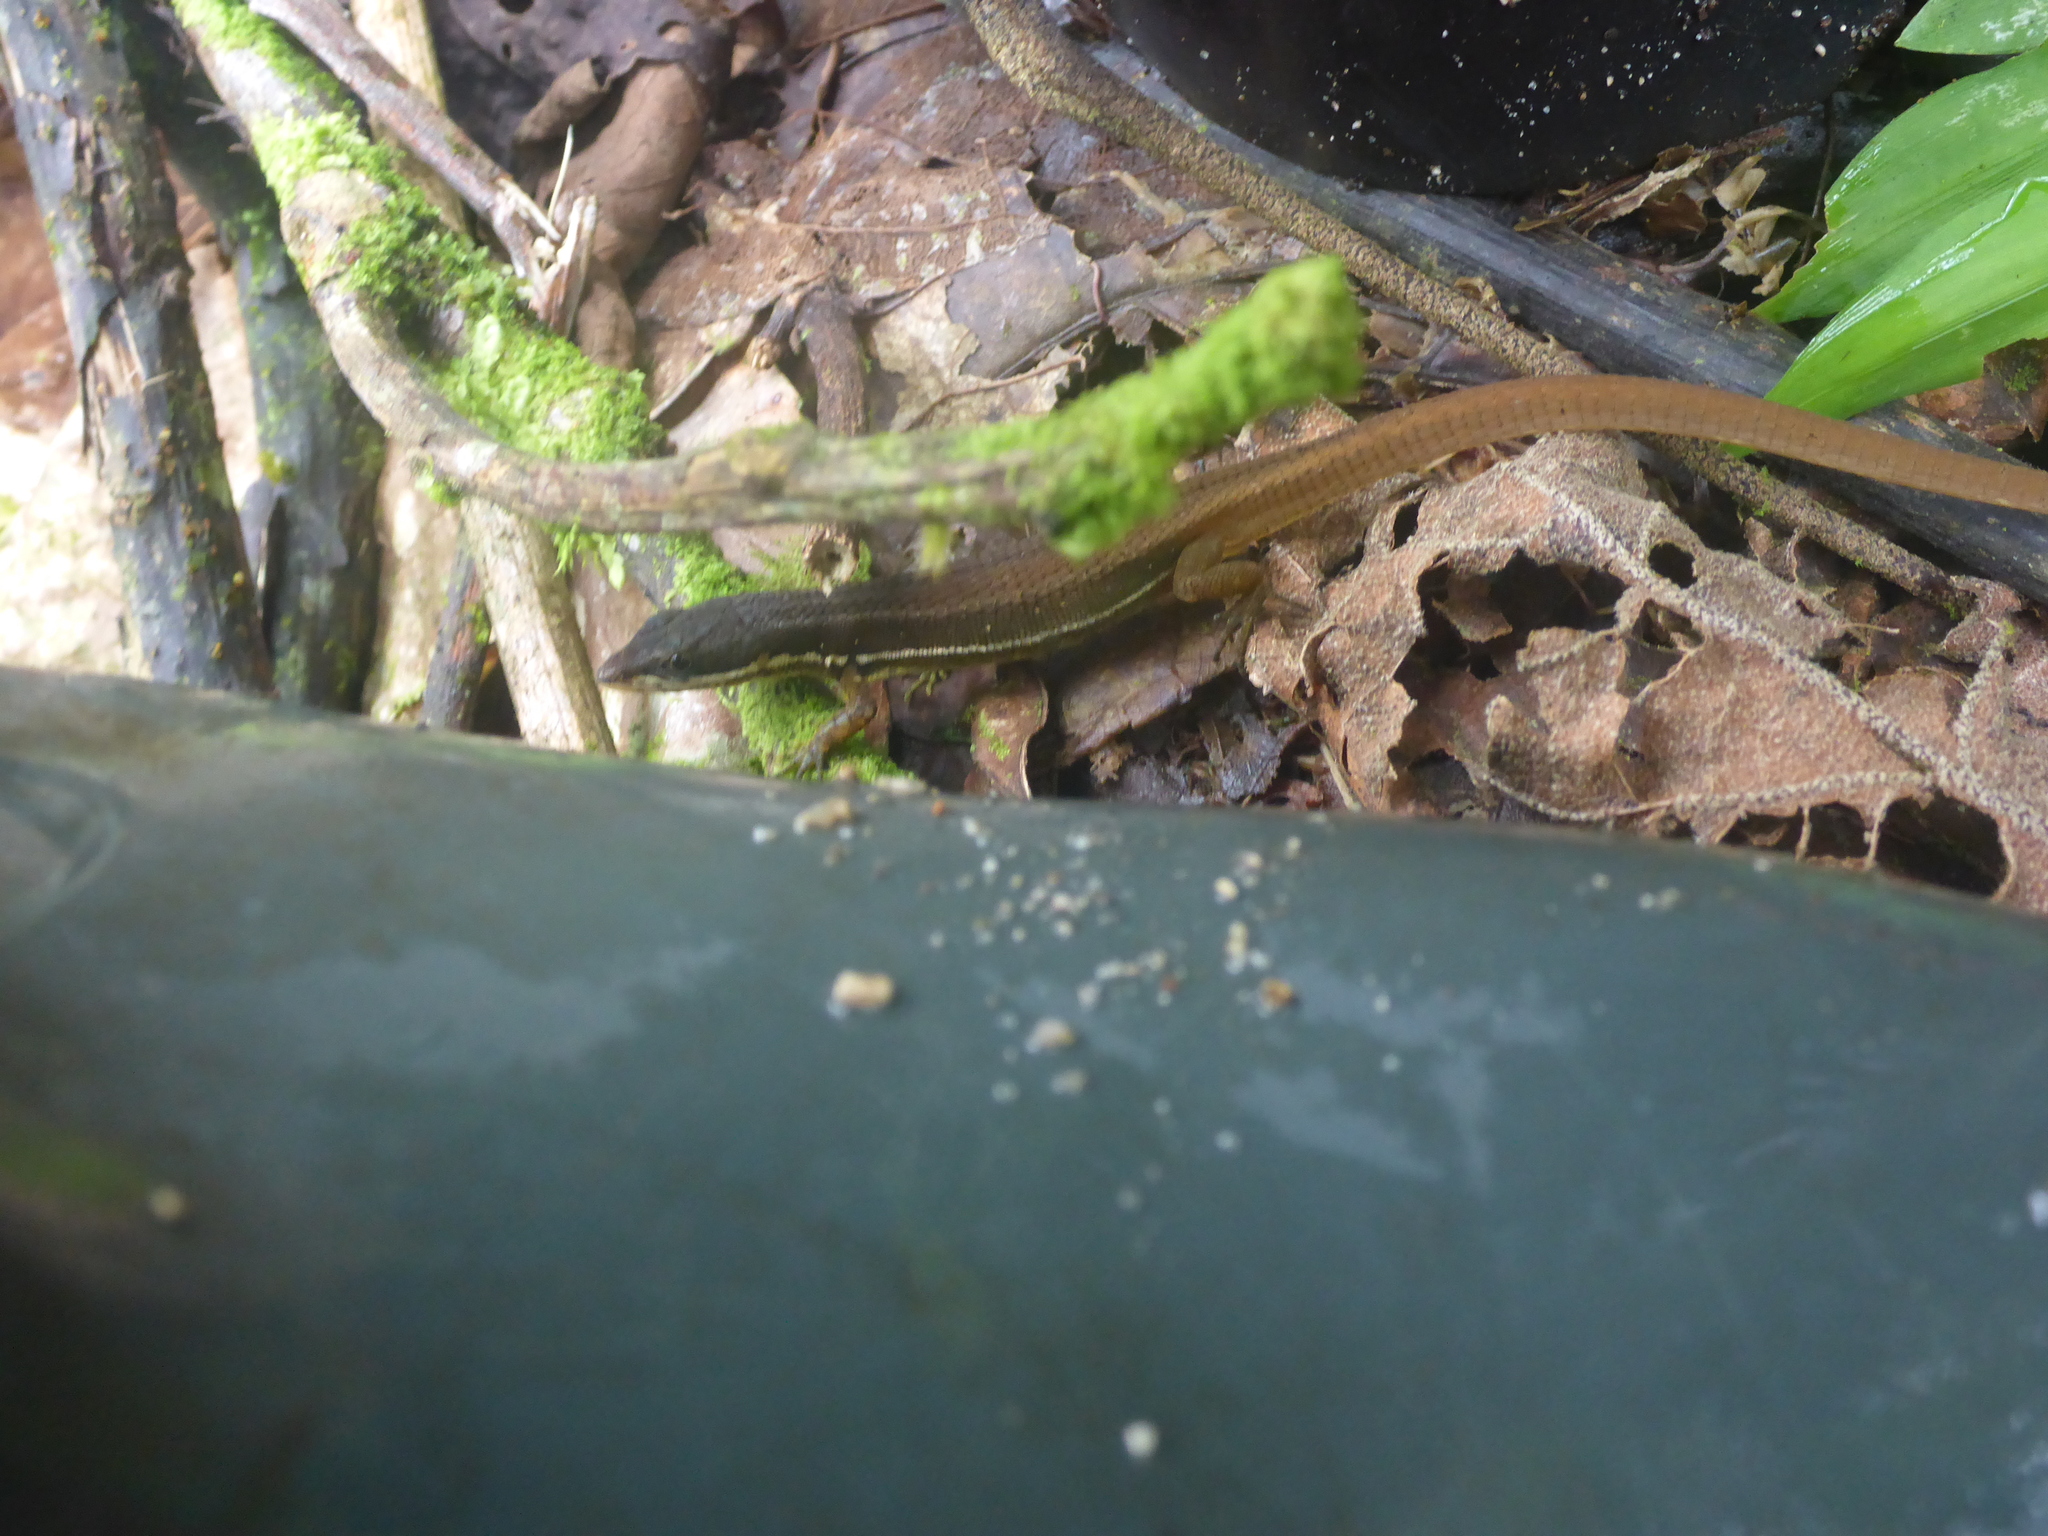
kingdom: Animalia
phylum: Chordata
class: Squamata
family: Gymnophthalmidae
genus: Cercosaura
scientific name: Cercosaura argulus
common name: White-lipped cercosaura
